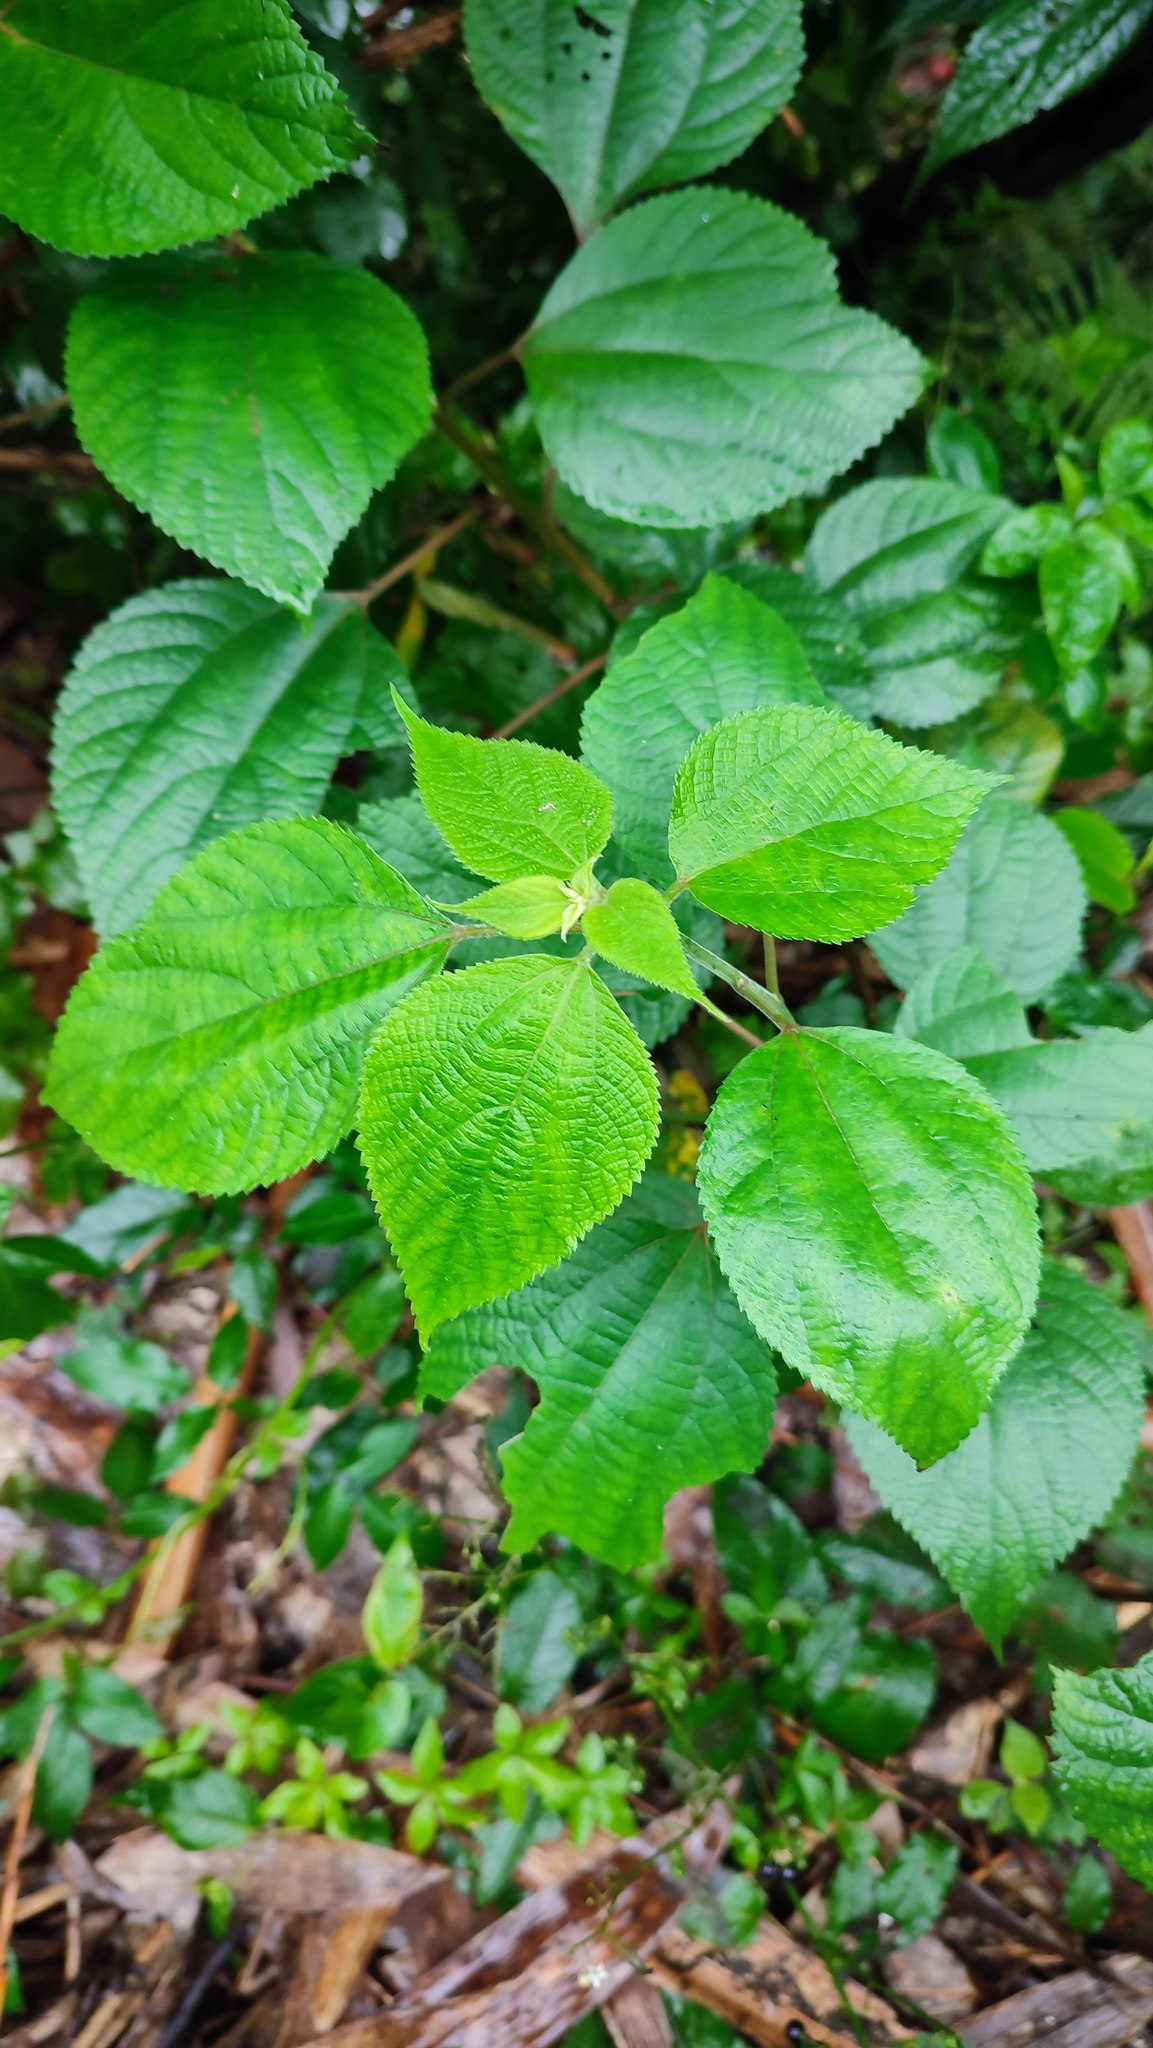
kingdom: Plantae
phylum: Tracheophyta
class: Magnoliopsida
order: Rosales
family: Urticaceae
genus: Boehmeria
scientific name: Boehmeria nivea
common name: Ramie chinese grass
